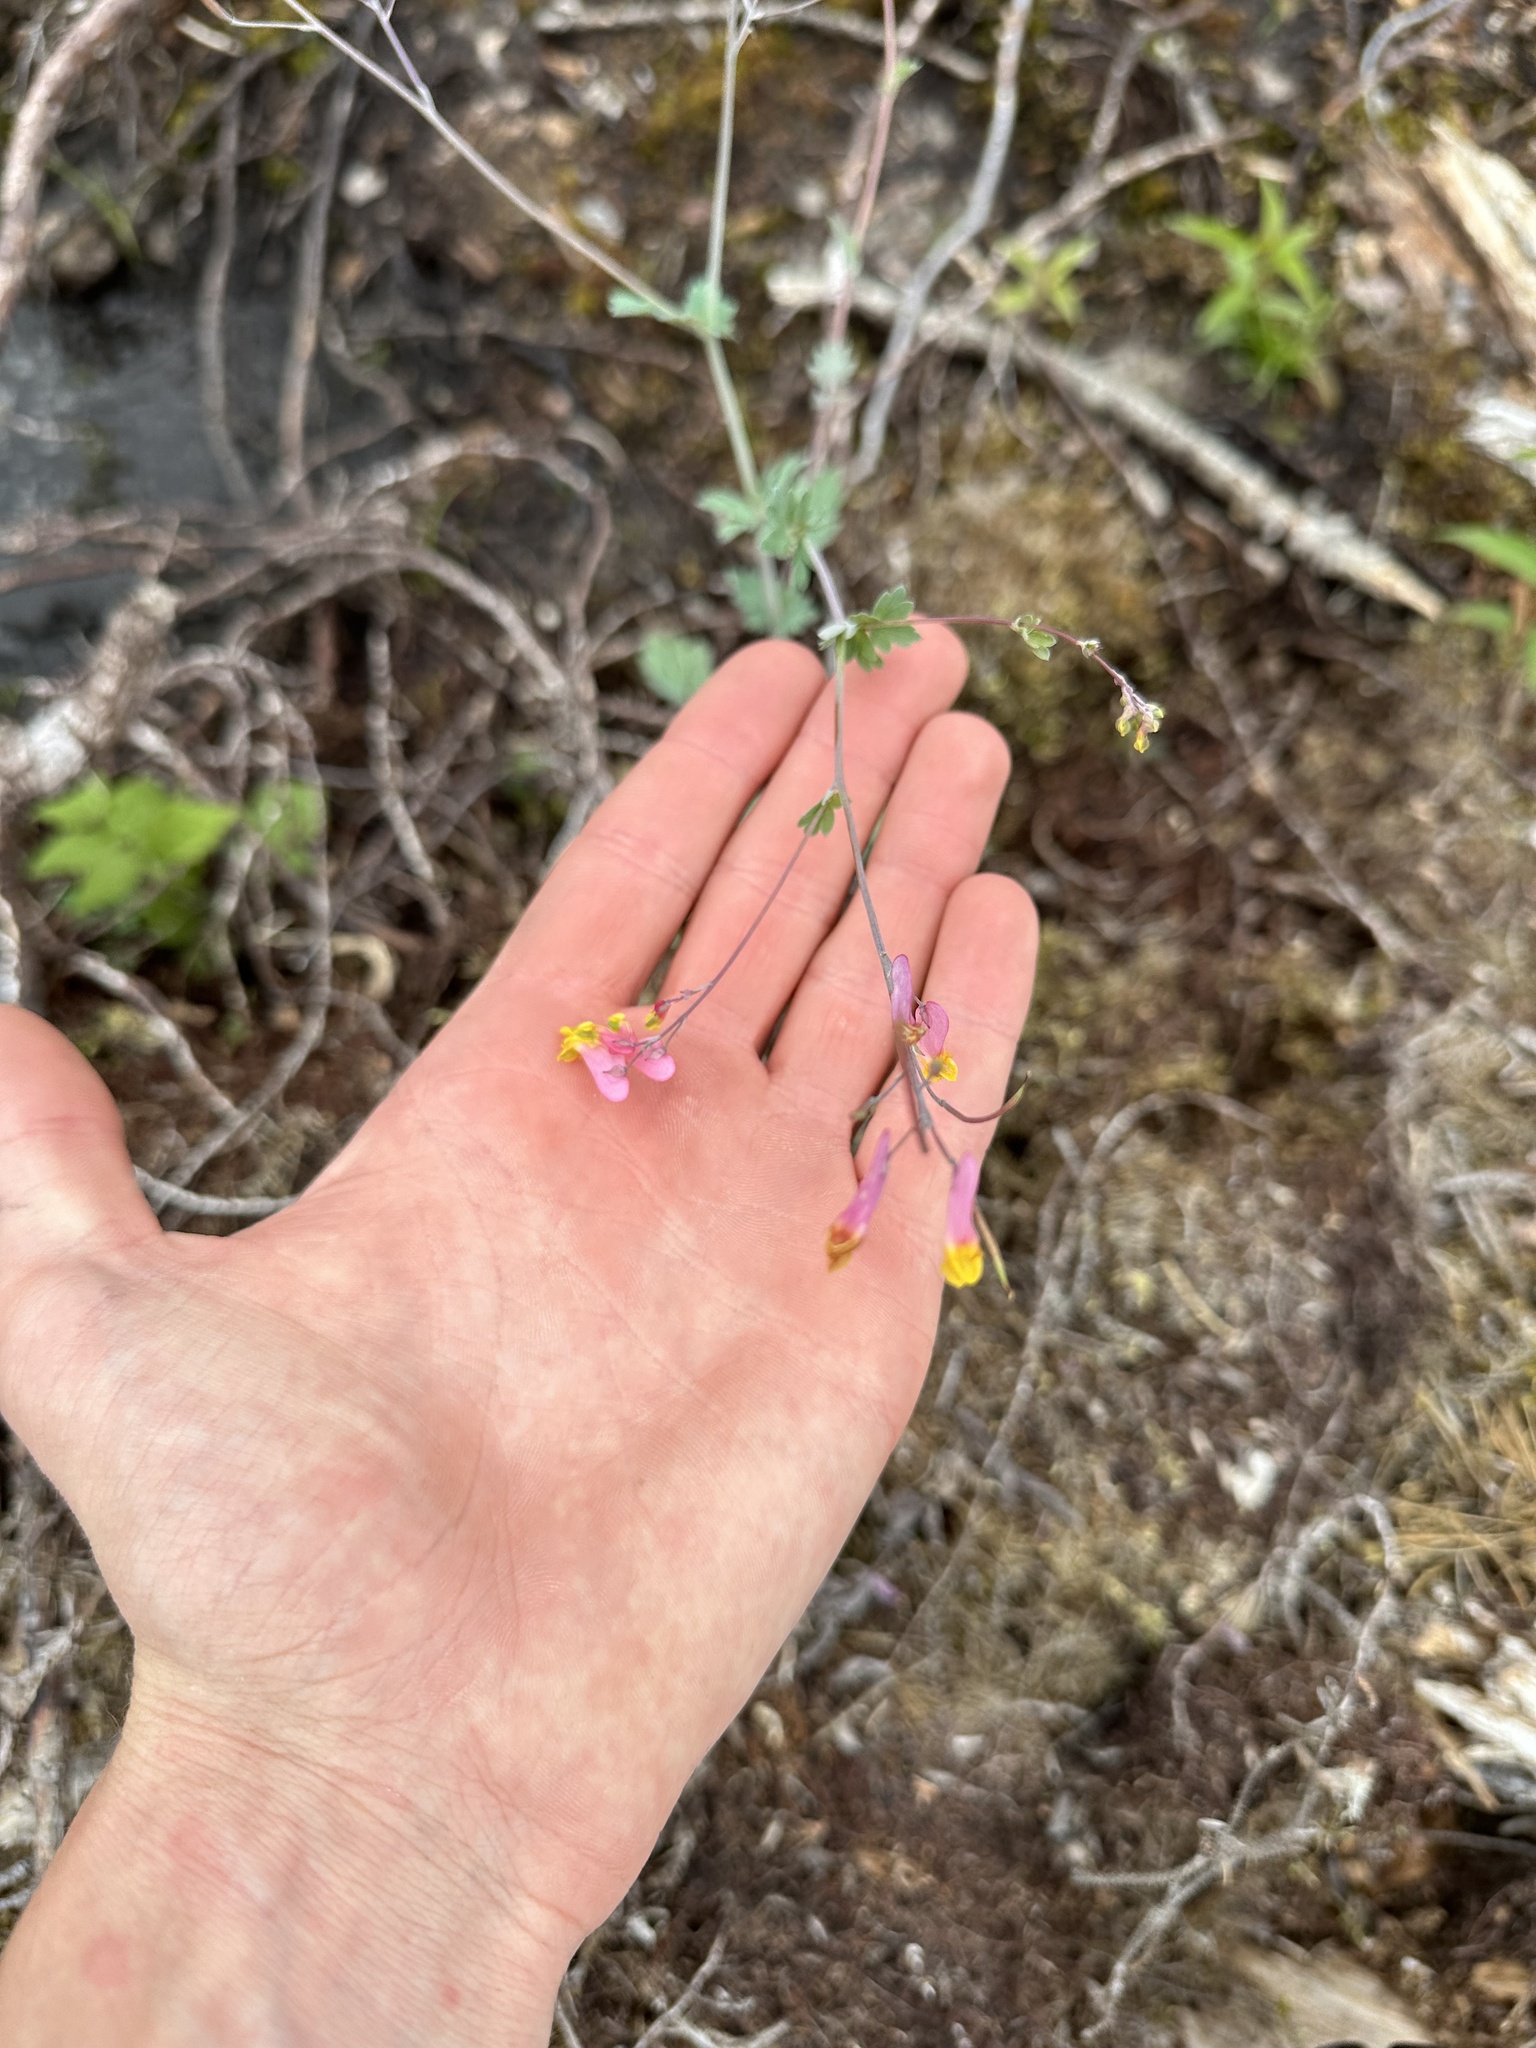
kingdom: Plantae
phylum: Tracheophyta
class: Magnoliopsida
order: Ranunculales
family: Papaveraceae
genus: Capnoides
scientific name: Capnoides sempervirens
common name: Rock harlequin
